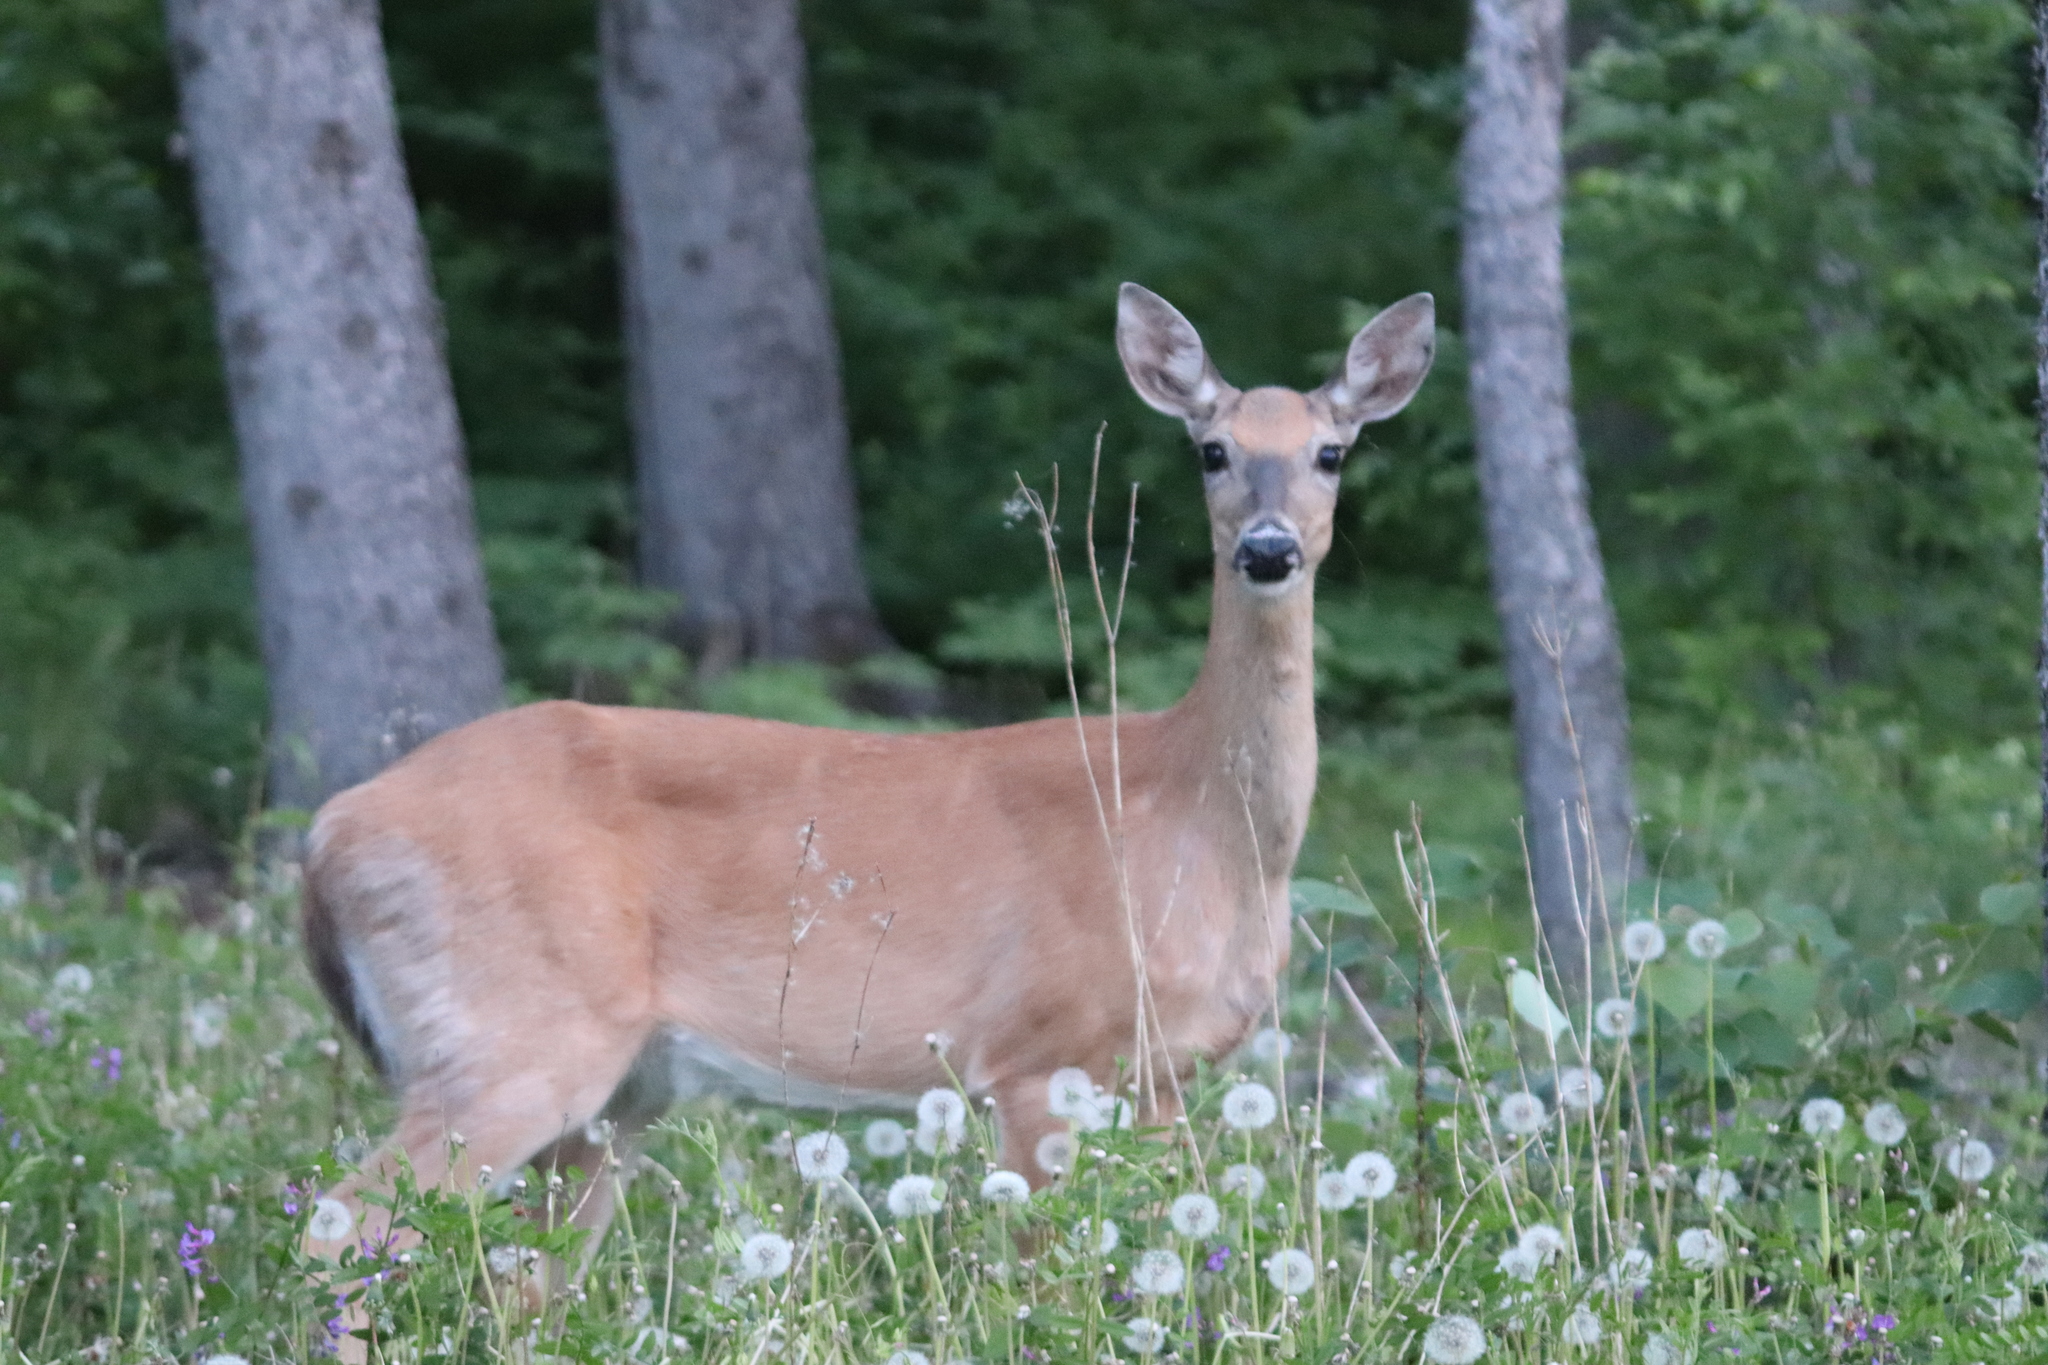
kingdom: Animalia
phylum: Chordata
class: Mammalia
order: Artiodactyla
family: Cervidae
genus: Odocoileus
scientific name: Odocoileus virginianus
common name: White-tailed deer
